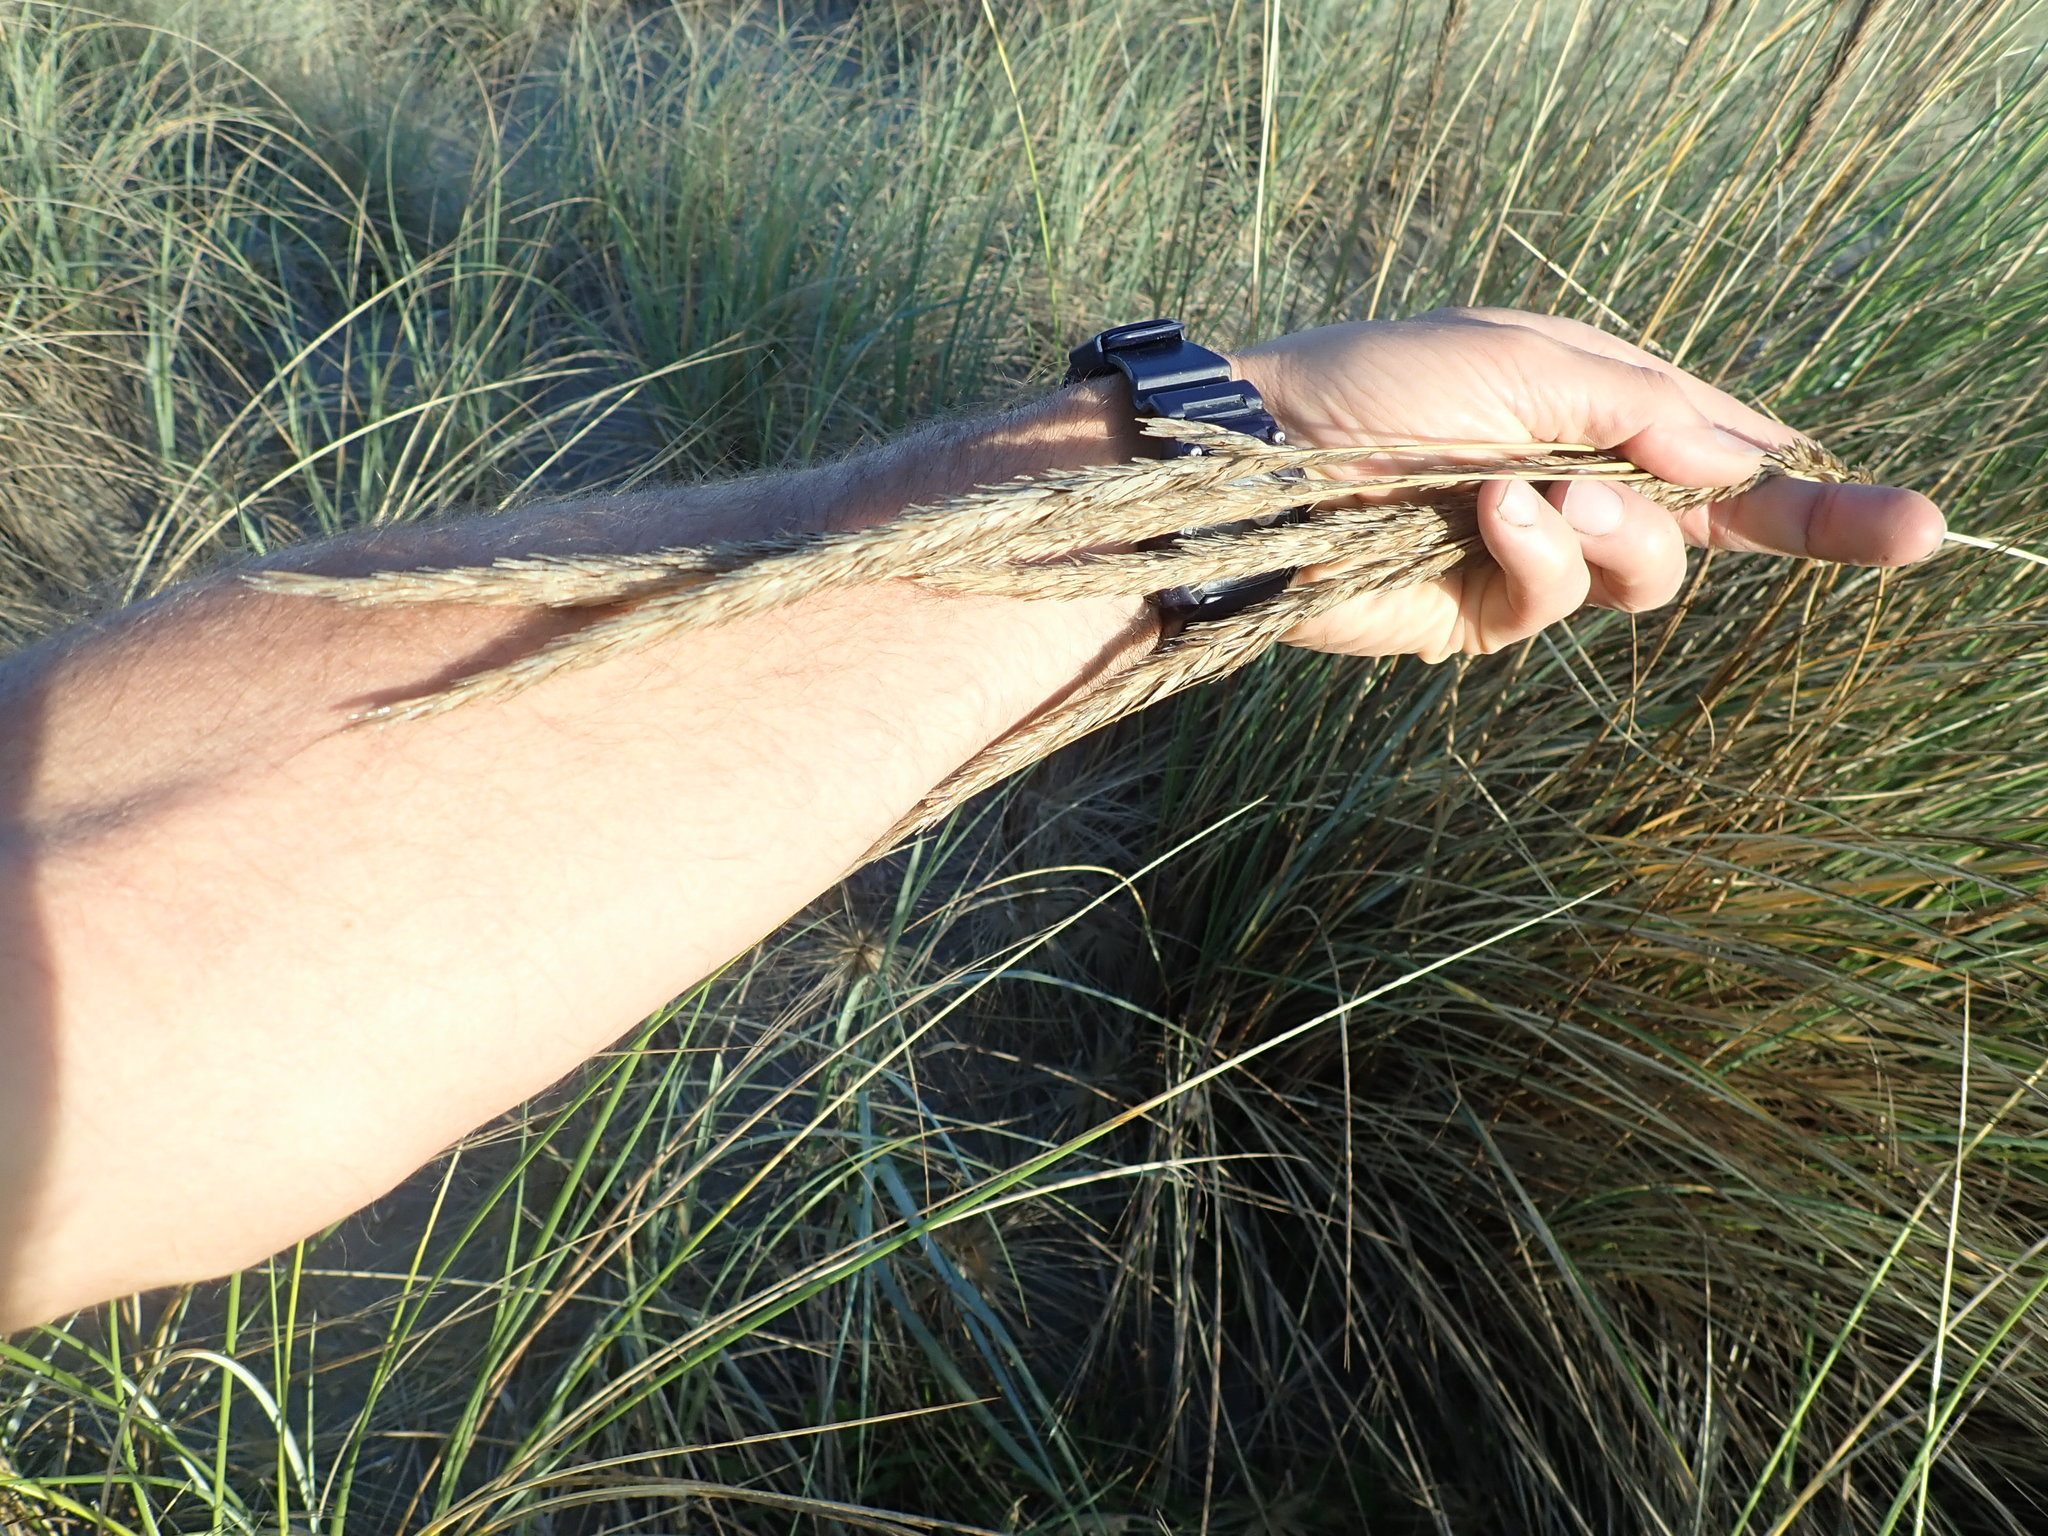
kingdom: Plantae
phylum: Tracheophyta
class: Liliopsida
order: Poales
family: Poaceae
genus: Calamagrostis
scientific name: Calamagrostis arenaria
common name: European beachgrass
